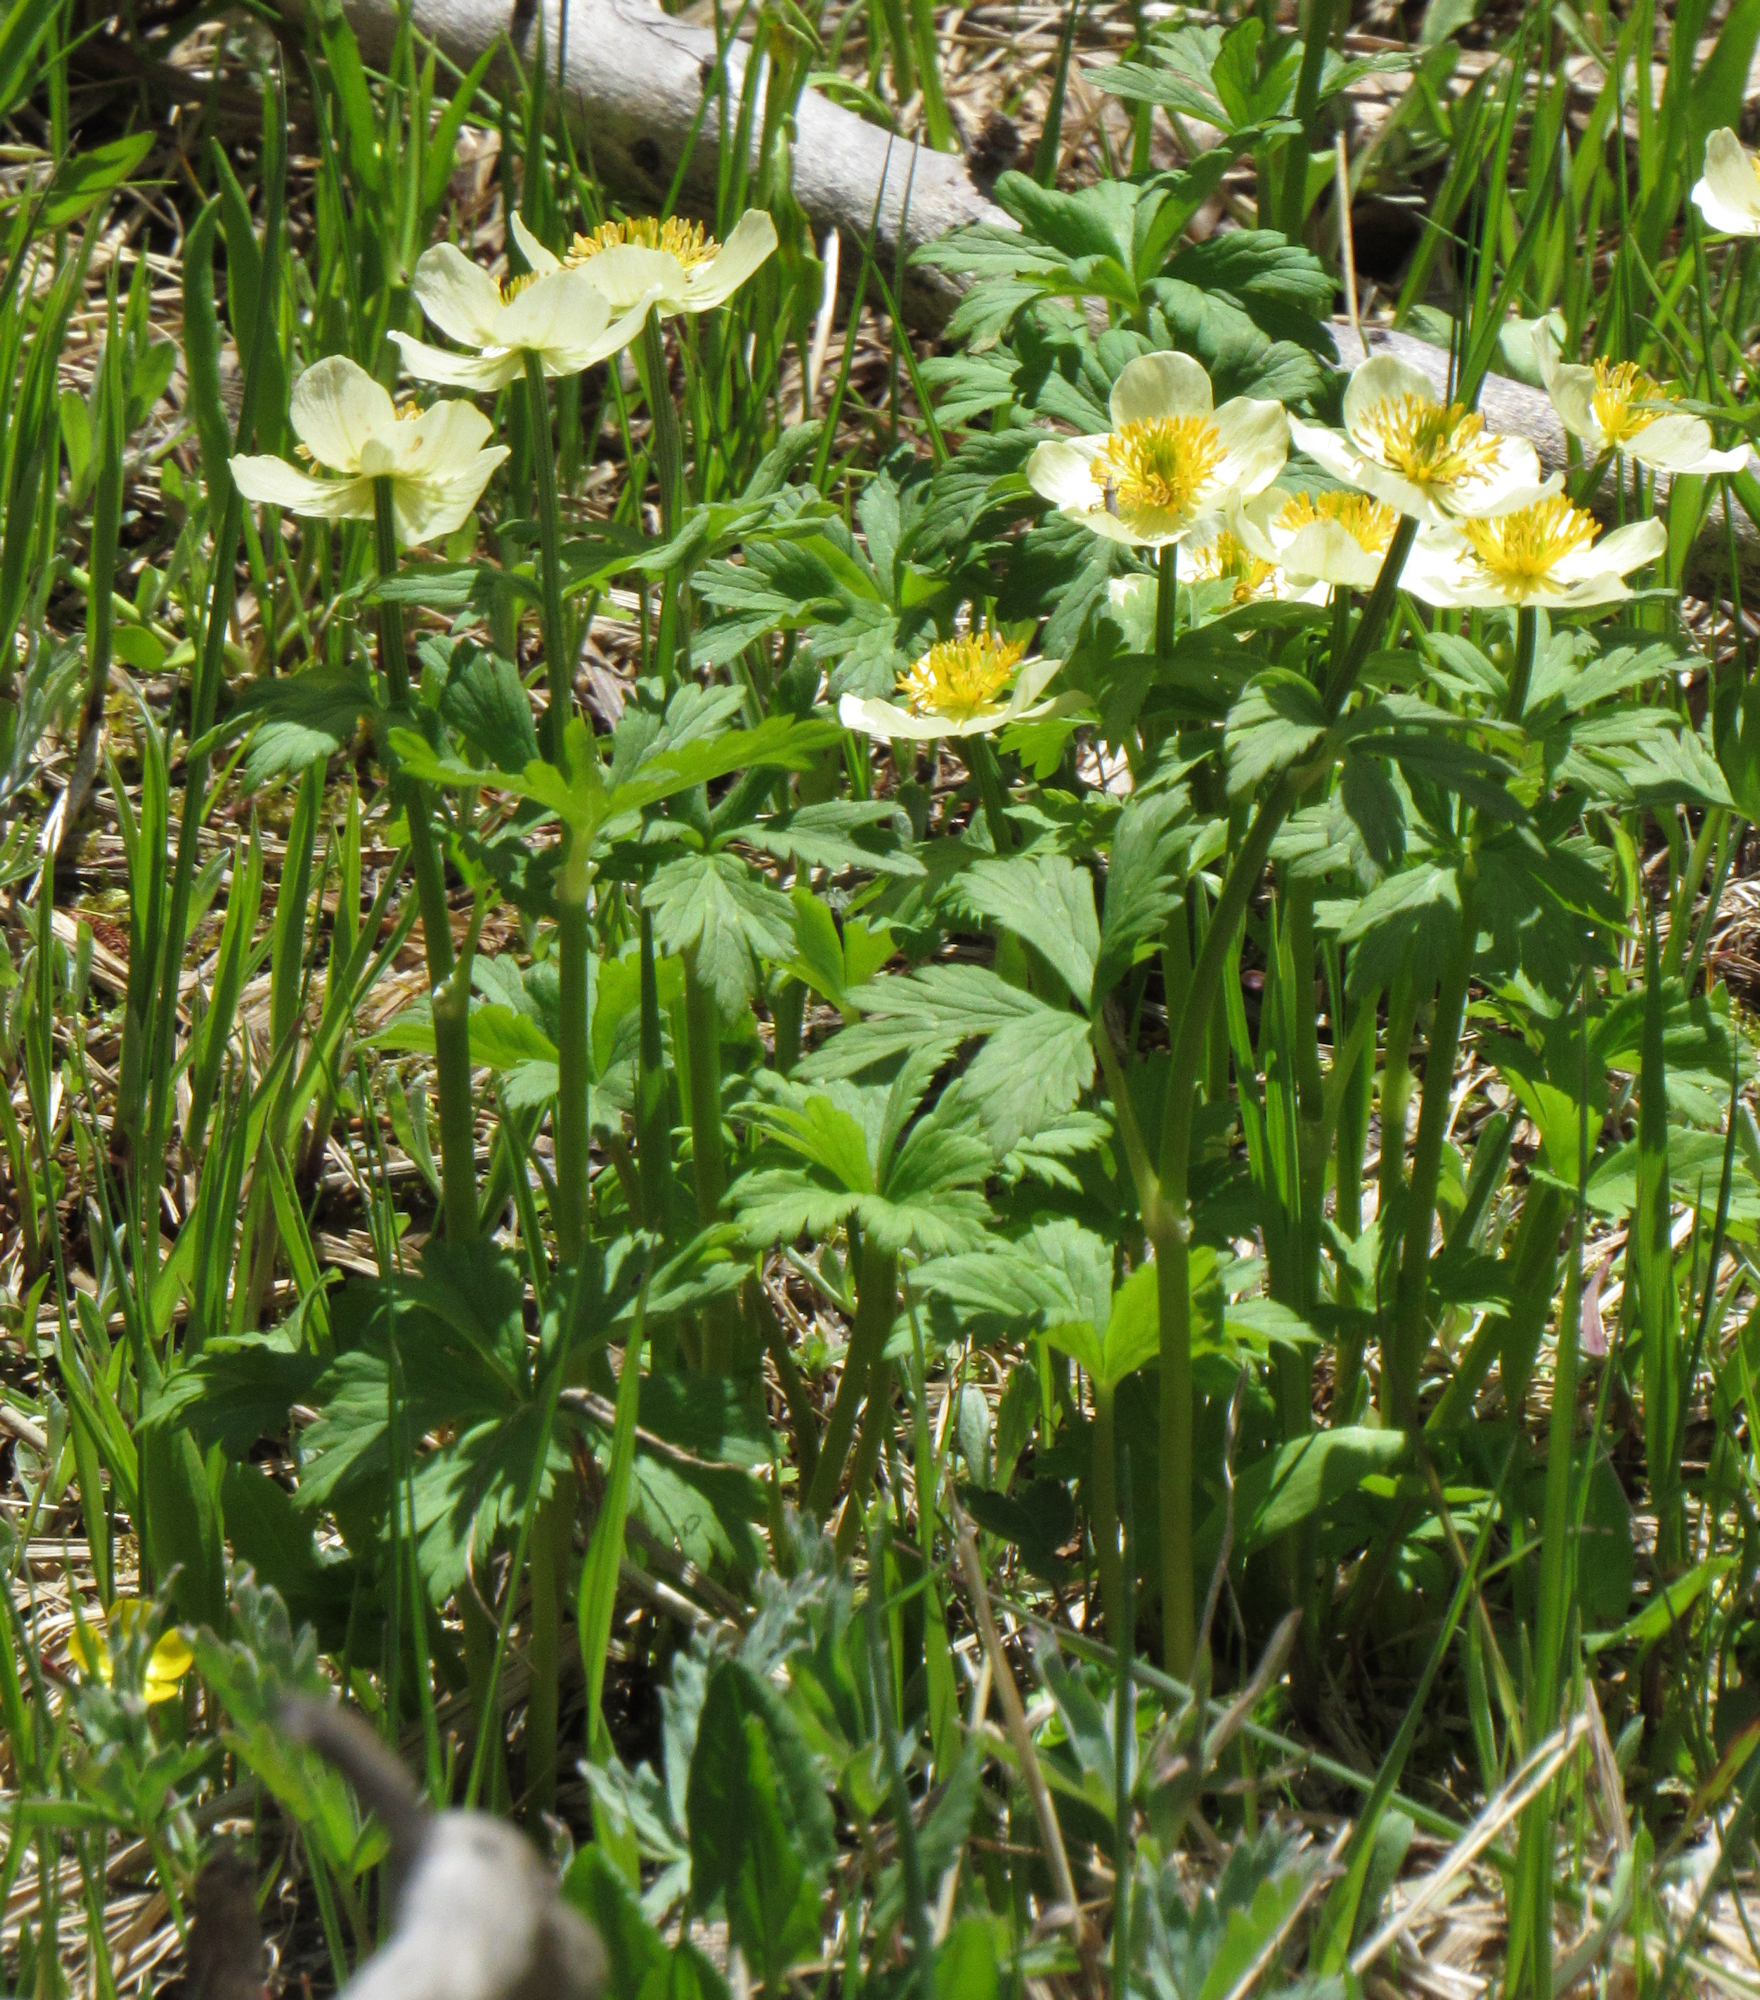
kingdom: Plantae
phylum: Tracheophyta
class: Magnoliopsida
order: Ranunculales
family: Ranunculaceae
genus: Trollius
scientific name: Trollius laxus
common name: American globeflower
